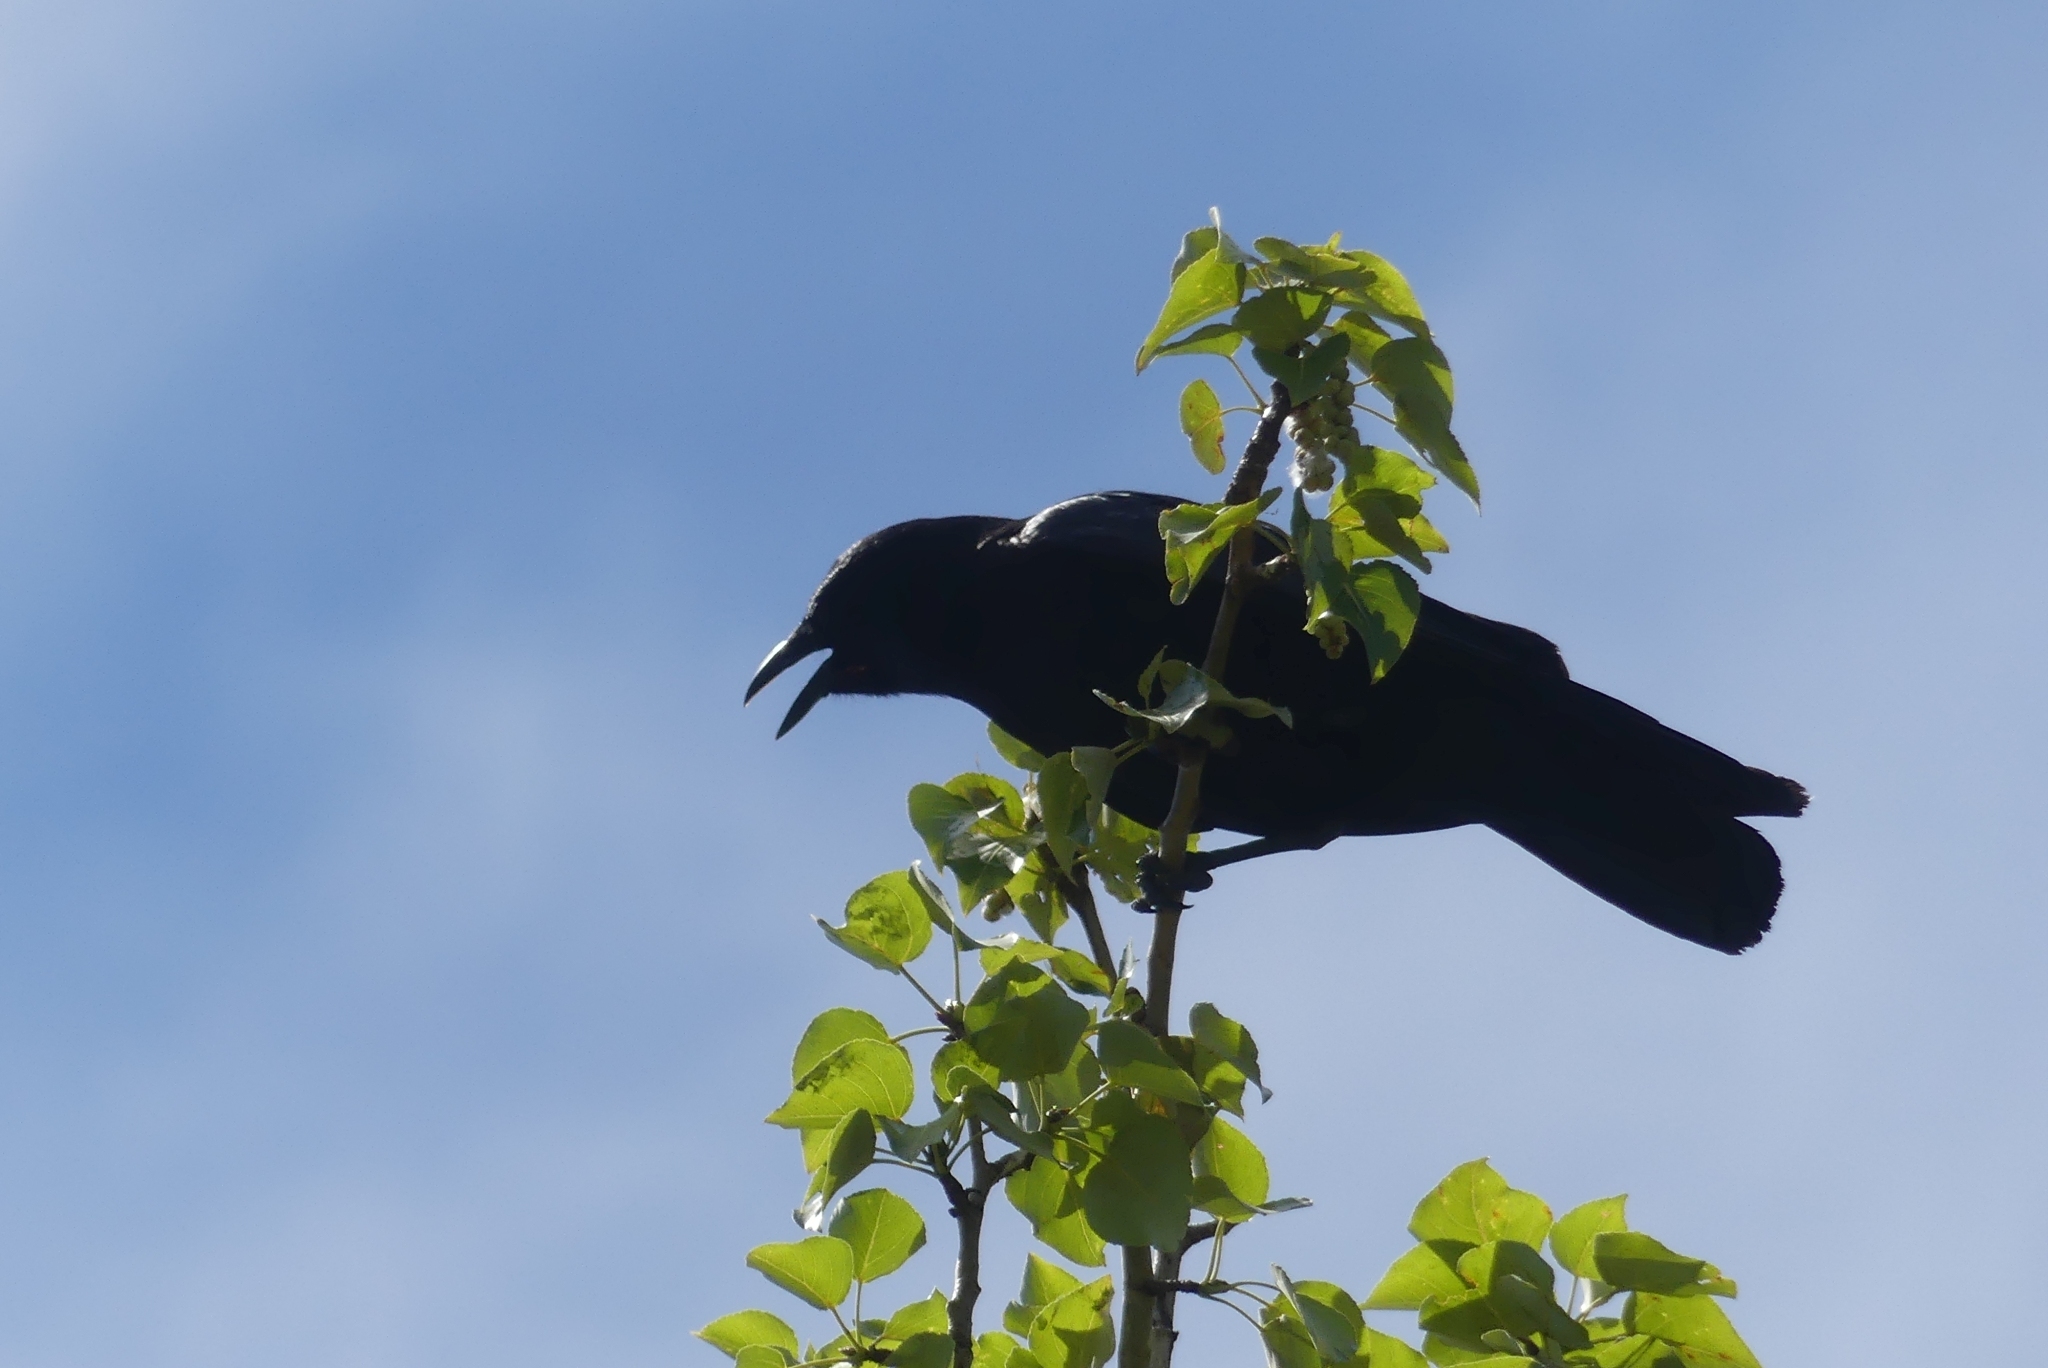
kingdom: Animalia
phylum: Chordata
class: Aves
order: Passeriformes
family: Corvidae
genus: Corvus
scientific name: Corvus brachyrhynchos
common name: American crow
